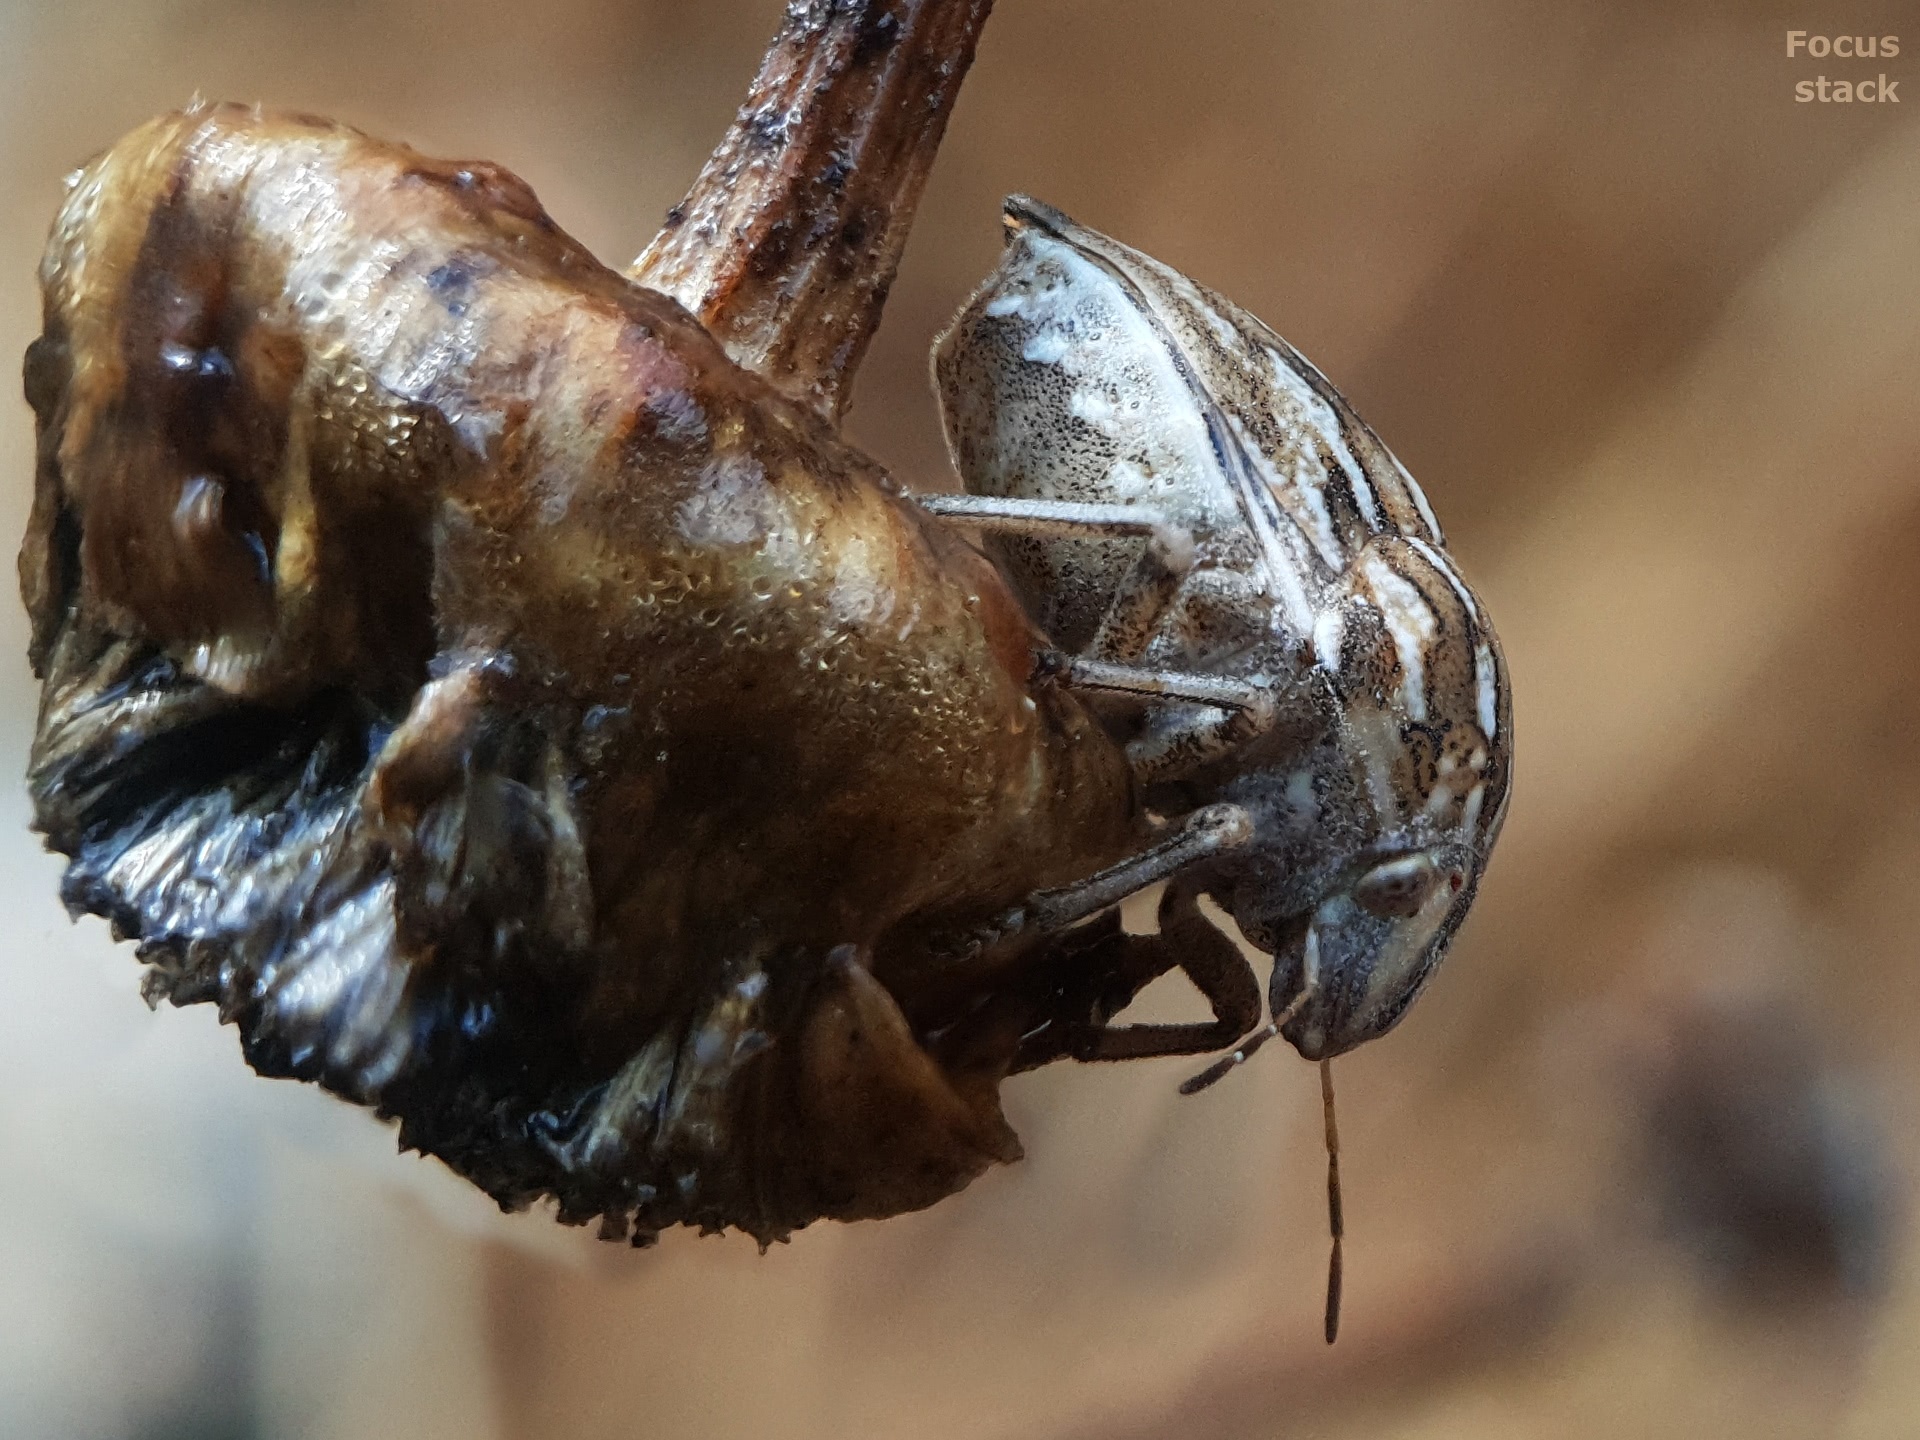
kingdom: Animalia
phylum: Arthropoda
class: Insecta
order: Hemiptera
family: Scutelleridae
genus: Odontotarsus
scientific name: Odontotarsus robustus
